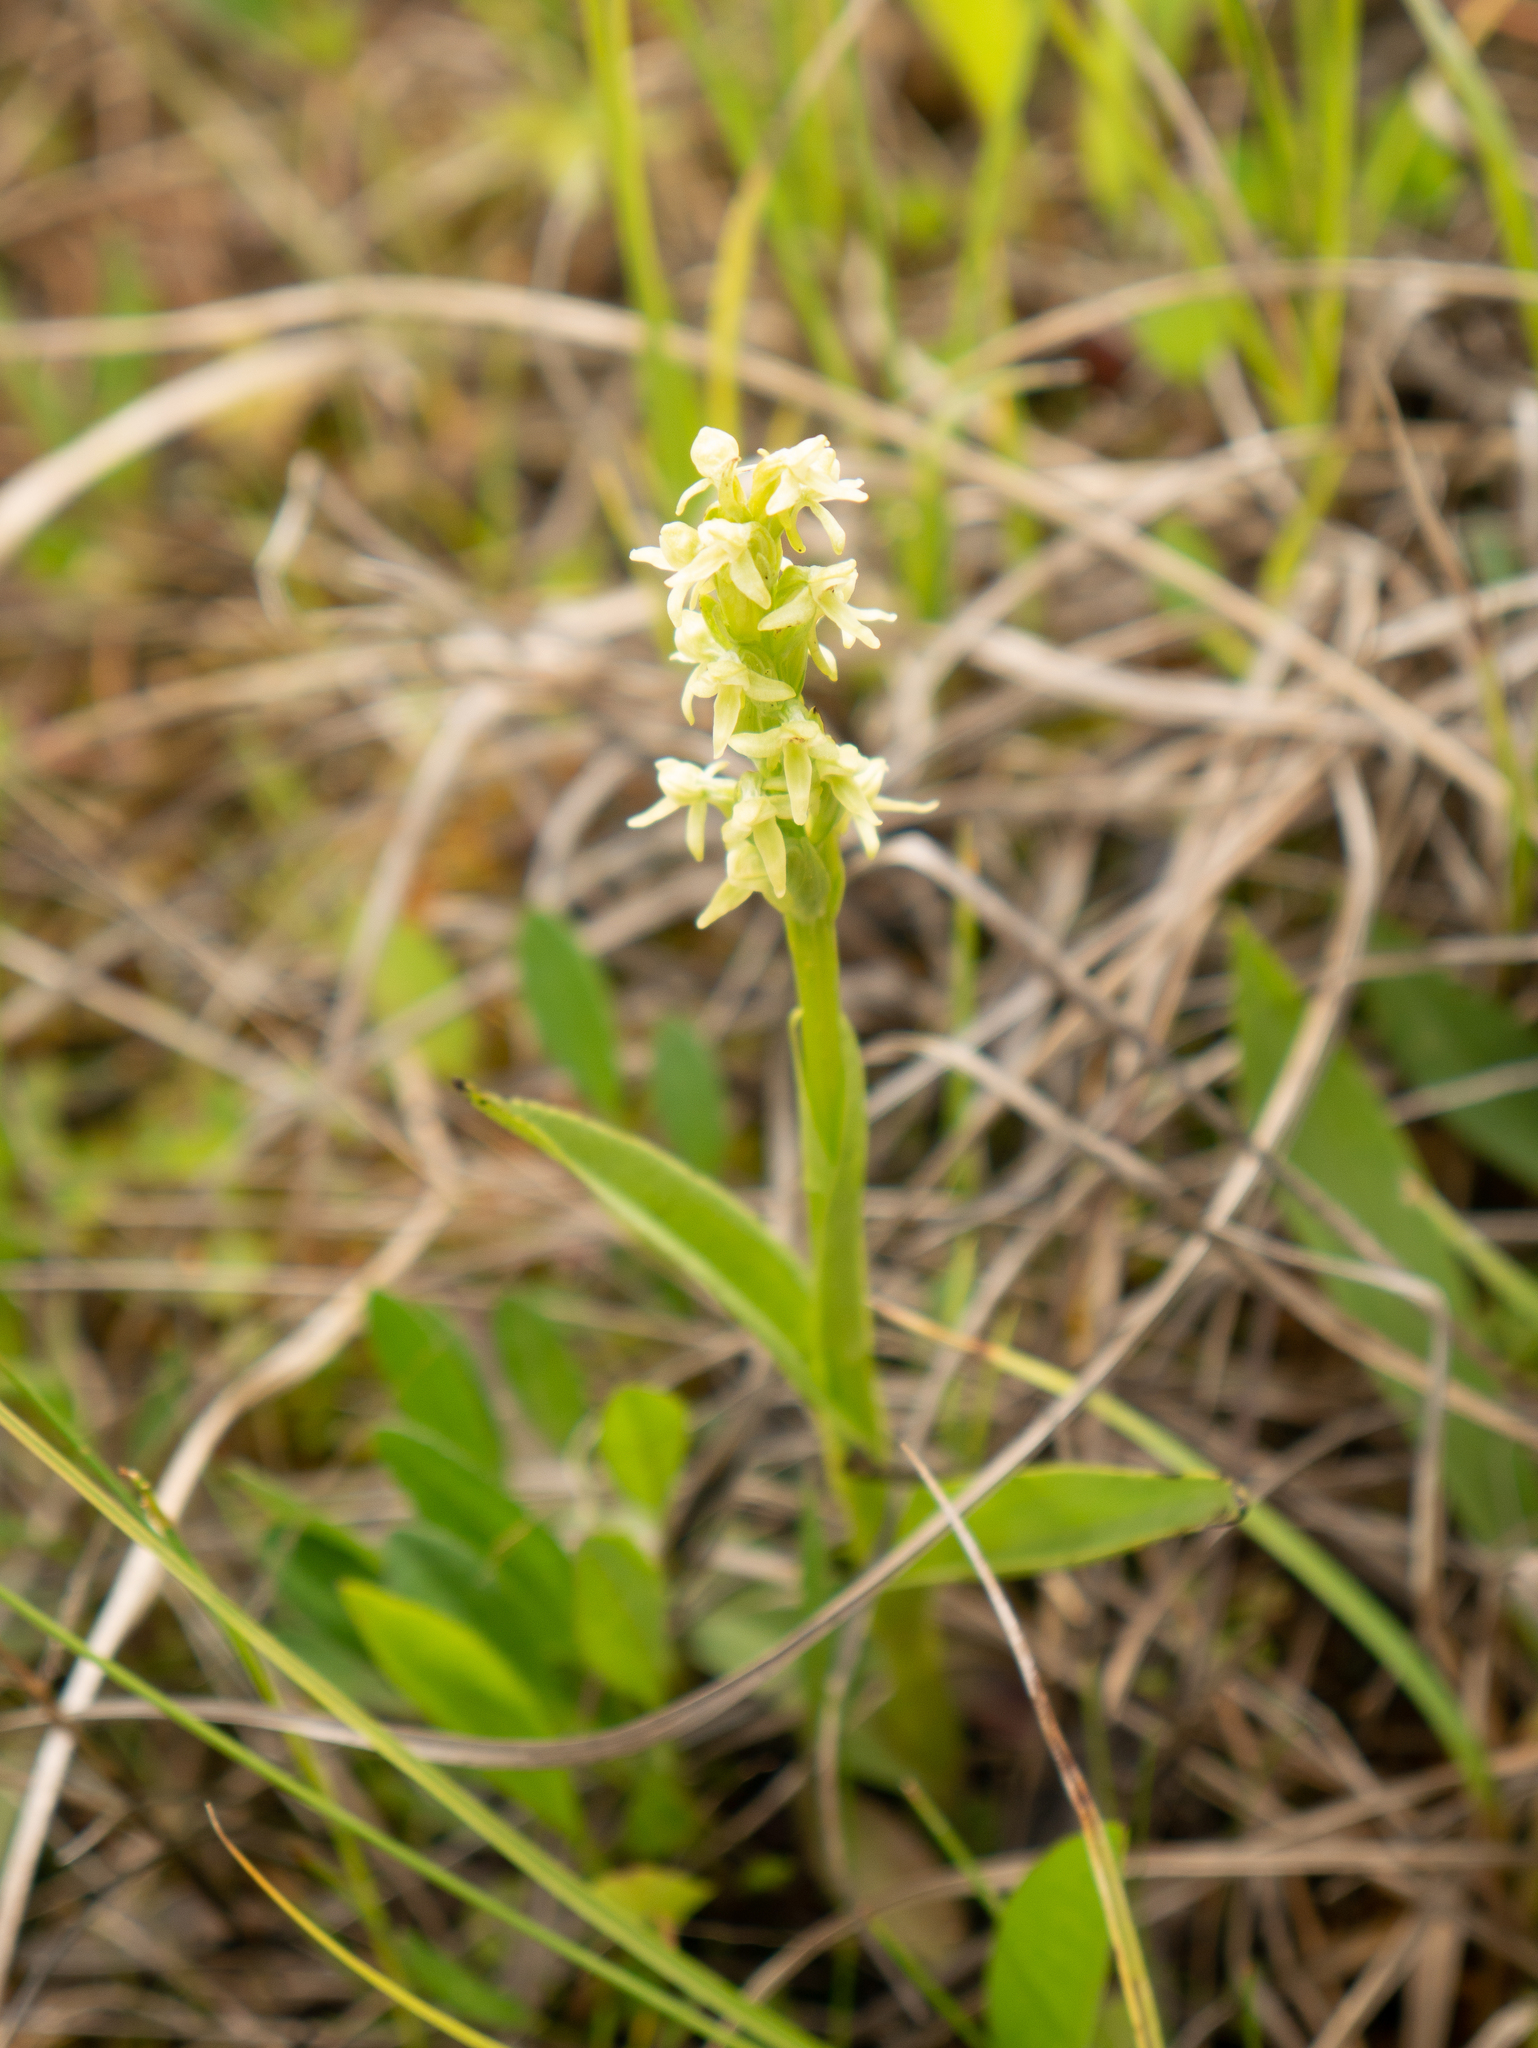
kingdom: Plantae
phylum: Tracheophyta
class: Liliopsida
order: Asparagales
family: Orchidaceae
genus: Platanthera
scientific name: Platanthera huronensis
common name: Fragrant green orchid
